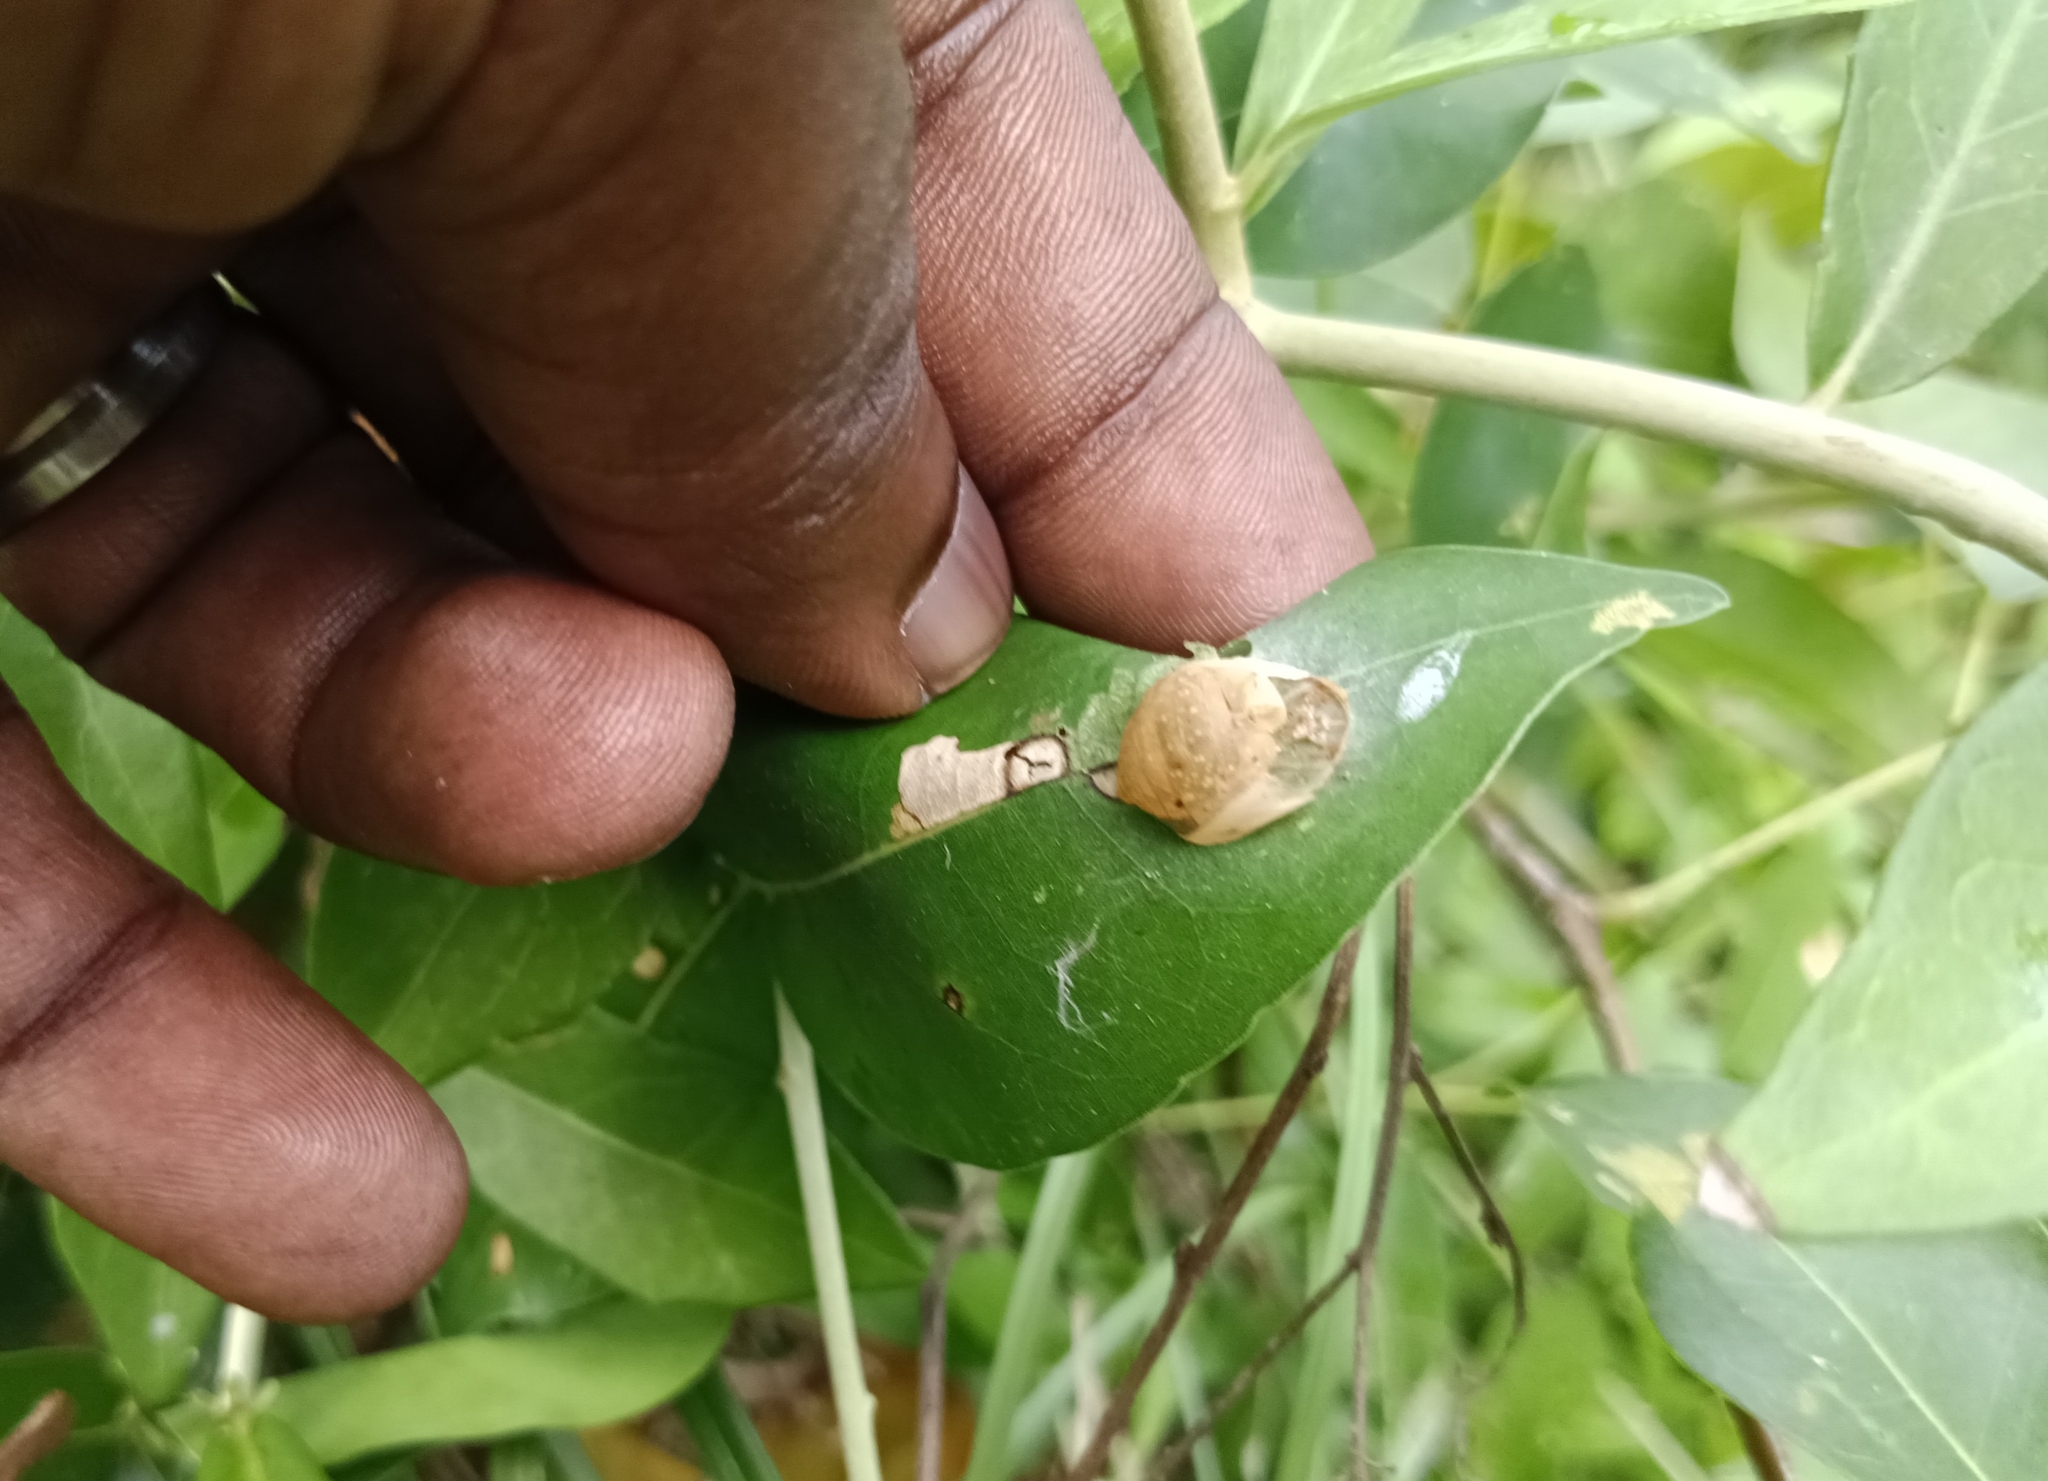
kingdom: Animalia
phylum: Arthropoda
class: Insecta
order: Lepidoptera
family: Lycaenidae
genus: Curetis
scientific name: Curetis thetis
